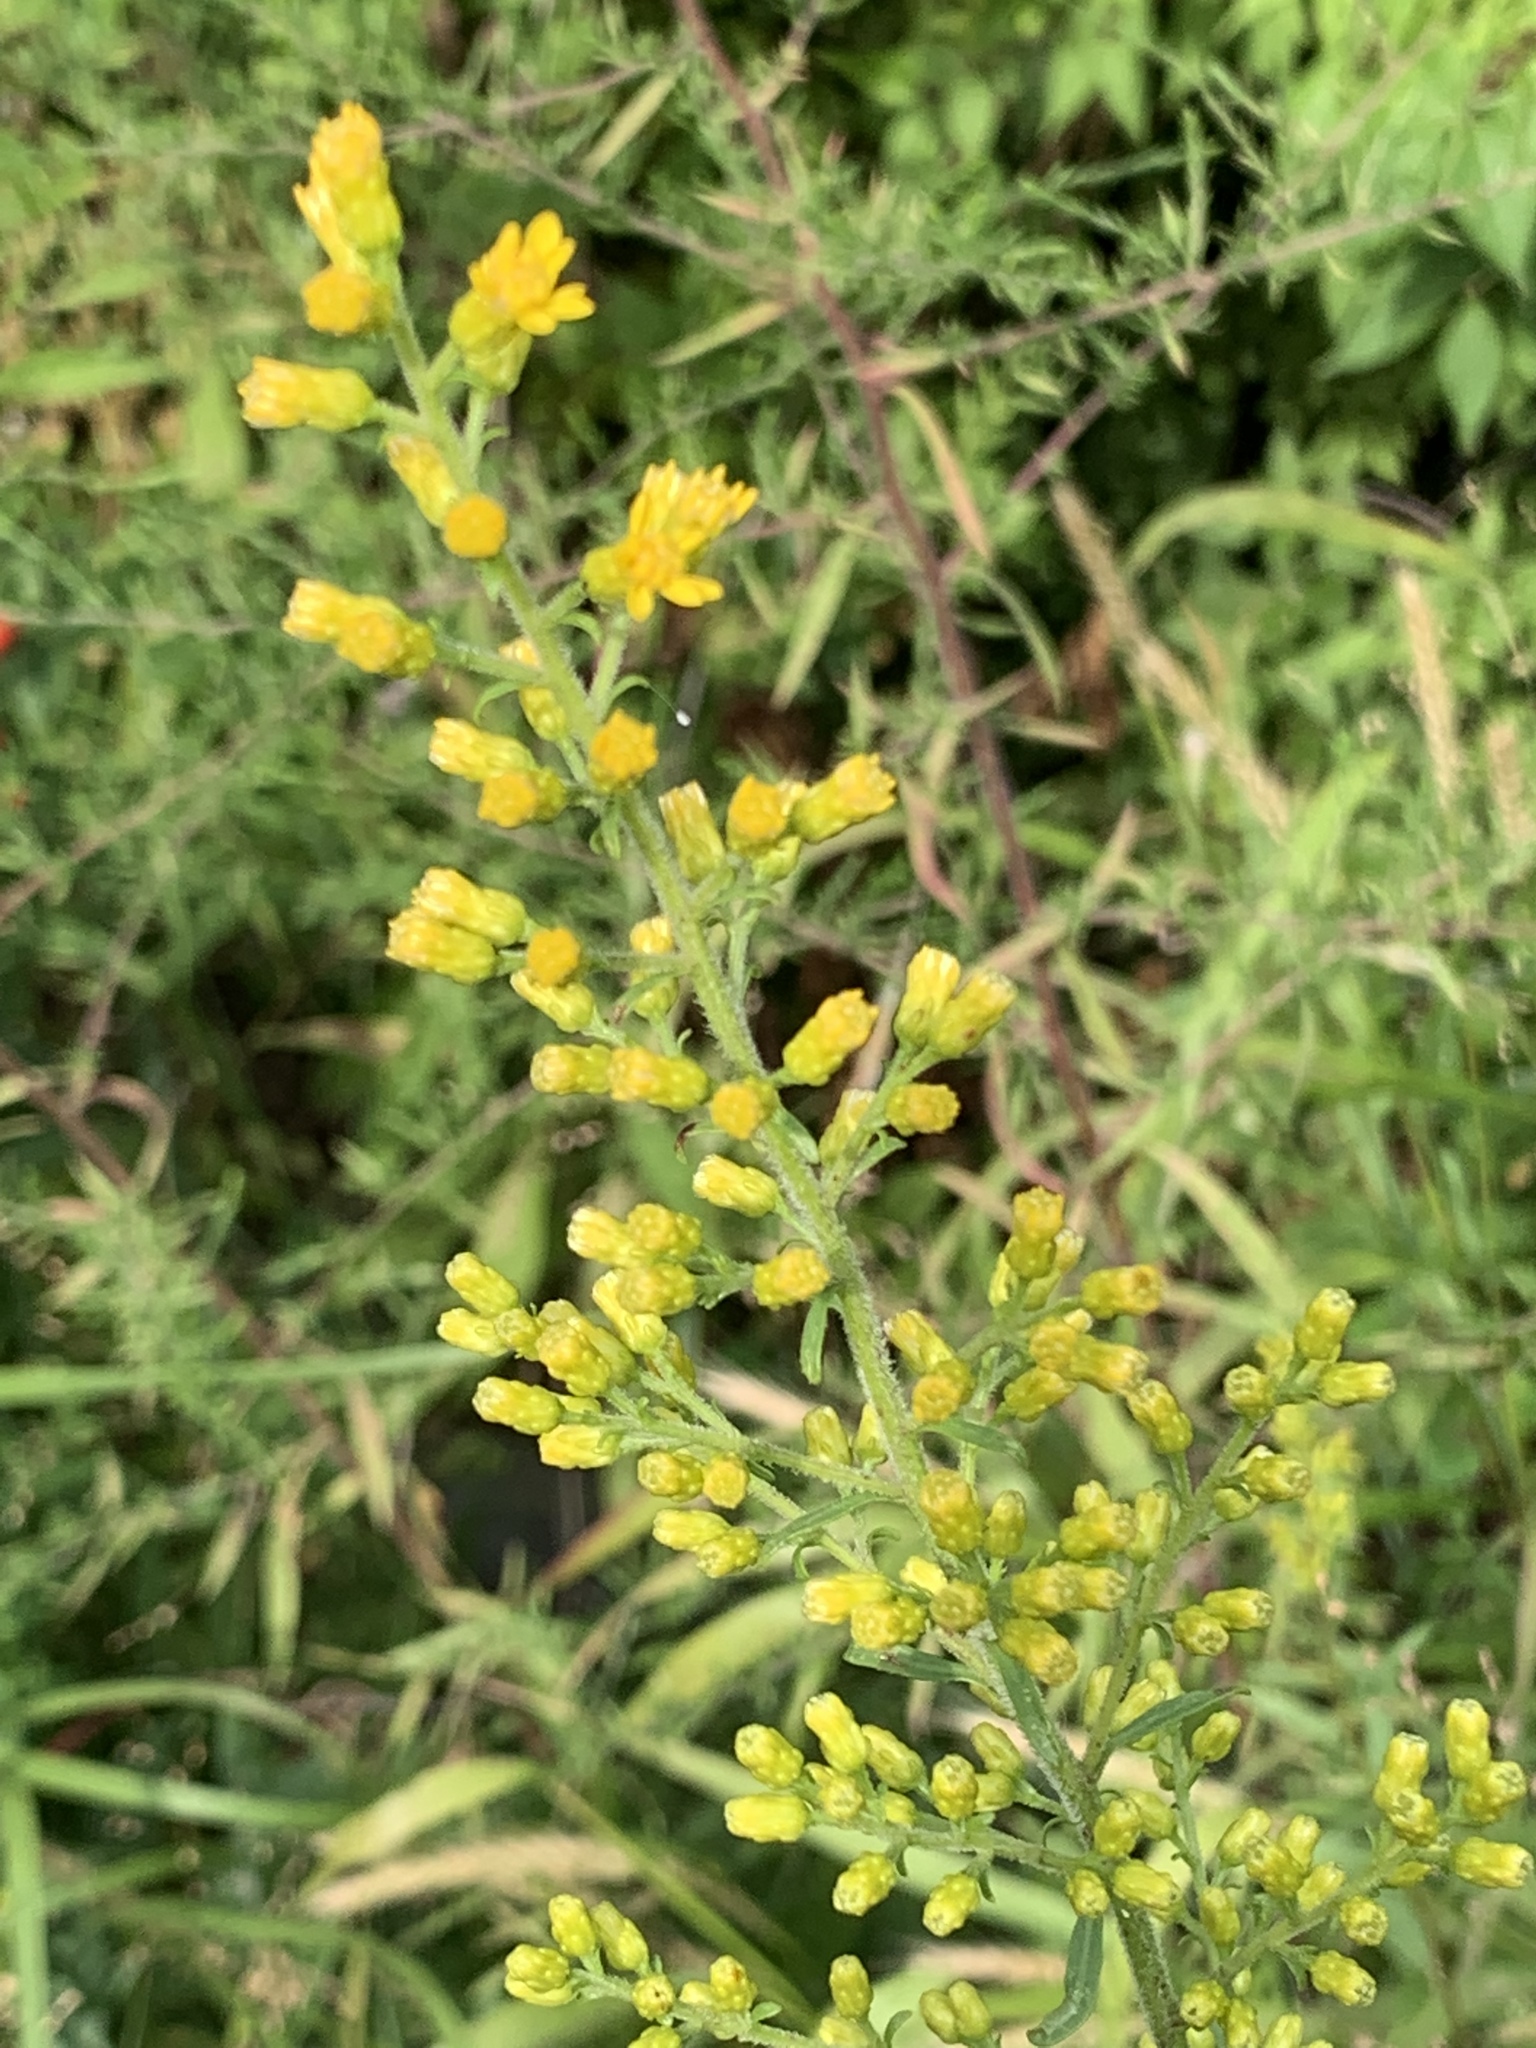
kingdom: Plantae
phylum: Tracheophyta
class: Magnoliopsida
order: Asterales
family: Asteraceae
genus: Solidago
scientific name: Solidago speciosa
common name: Showy goldenrod
